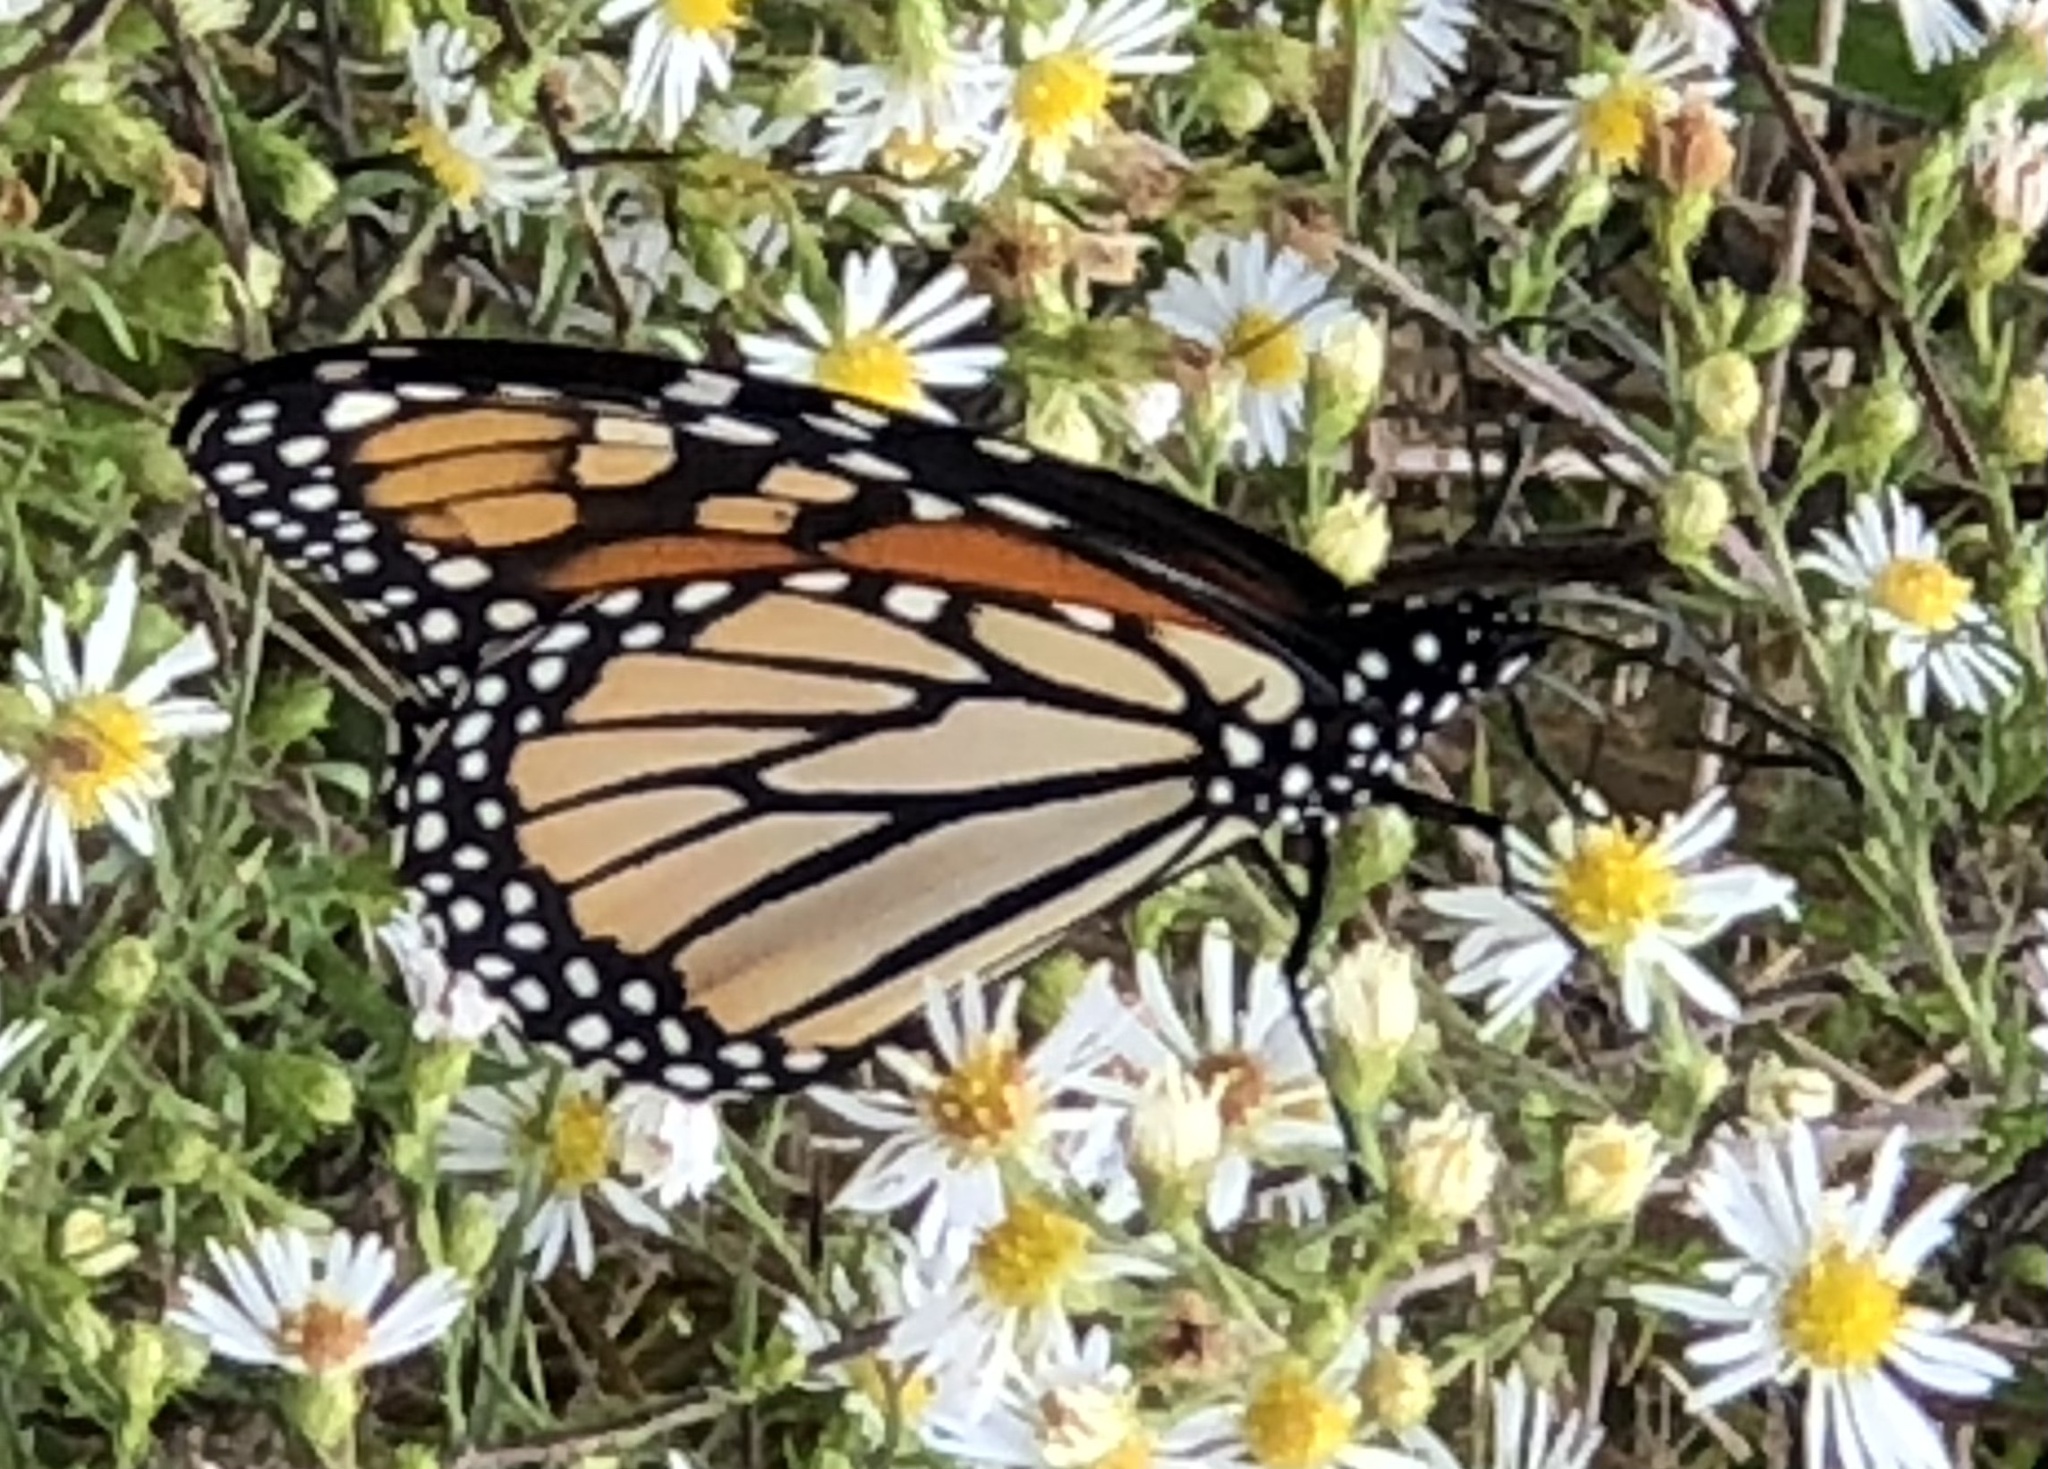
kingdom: Animalia
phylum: Arthropoda
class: Insecta
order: Lepidoptera
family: Nymphalidae
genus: Danaus
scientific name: Danaus plexippus
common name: Monarch
